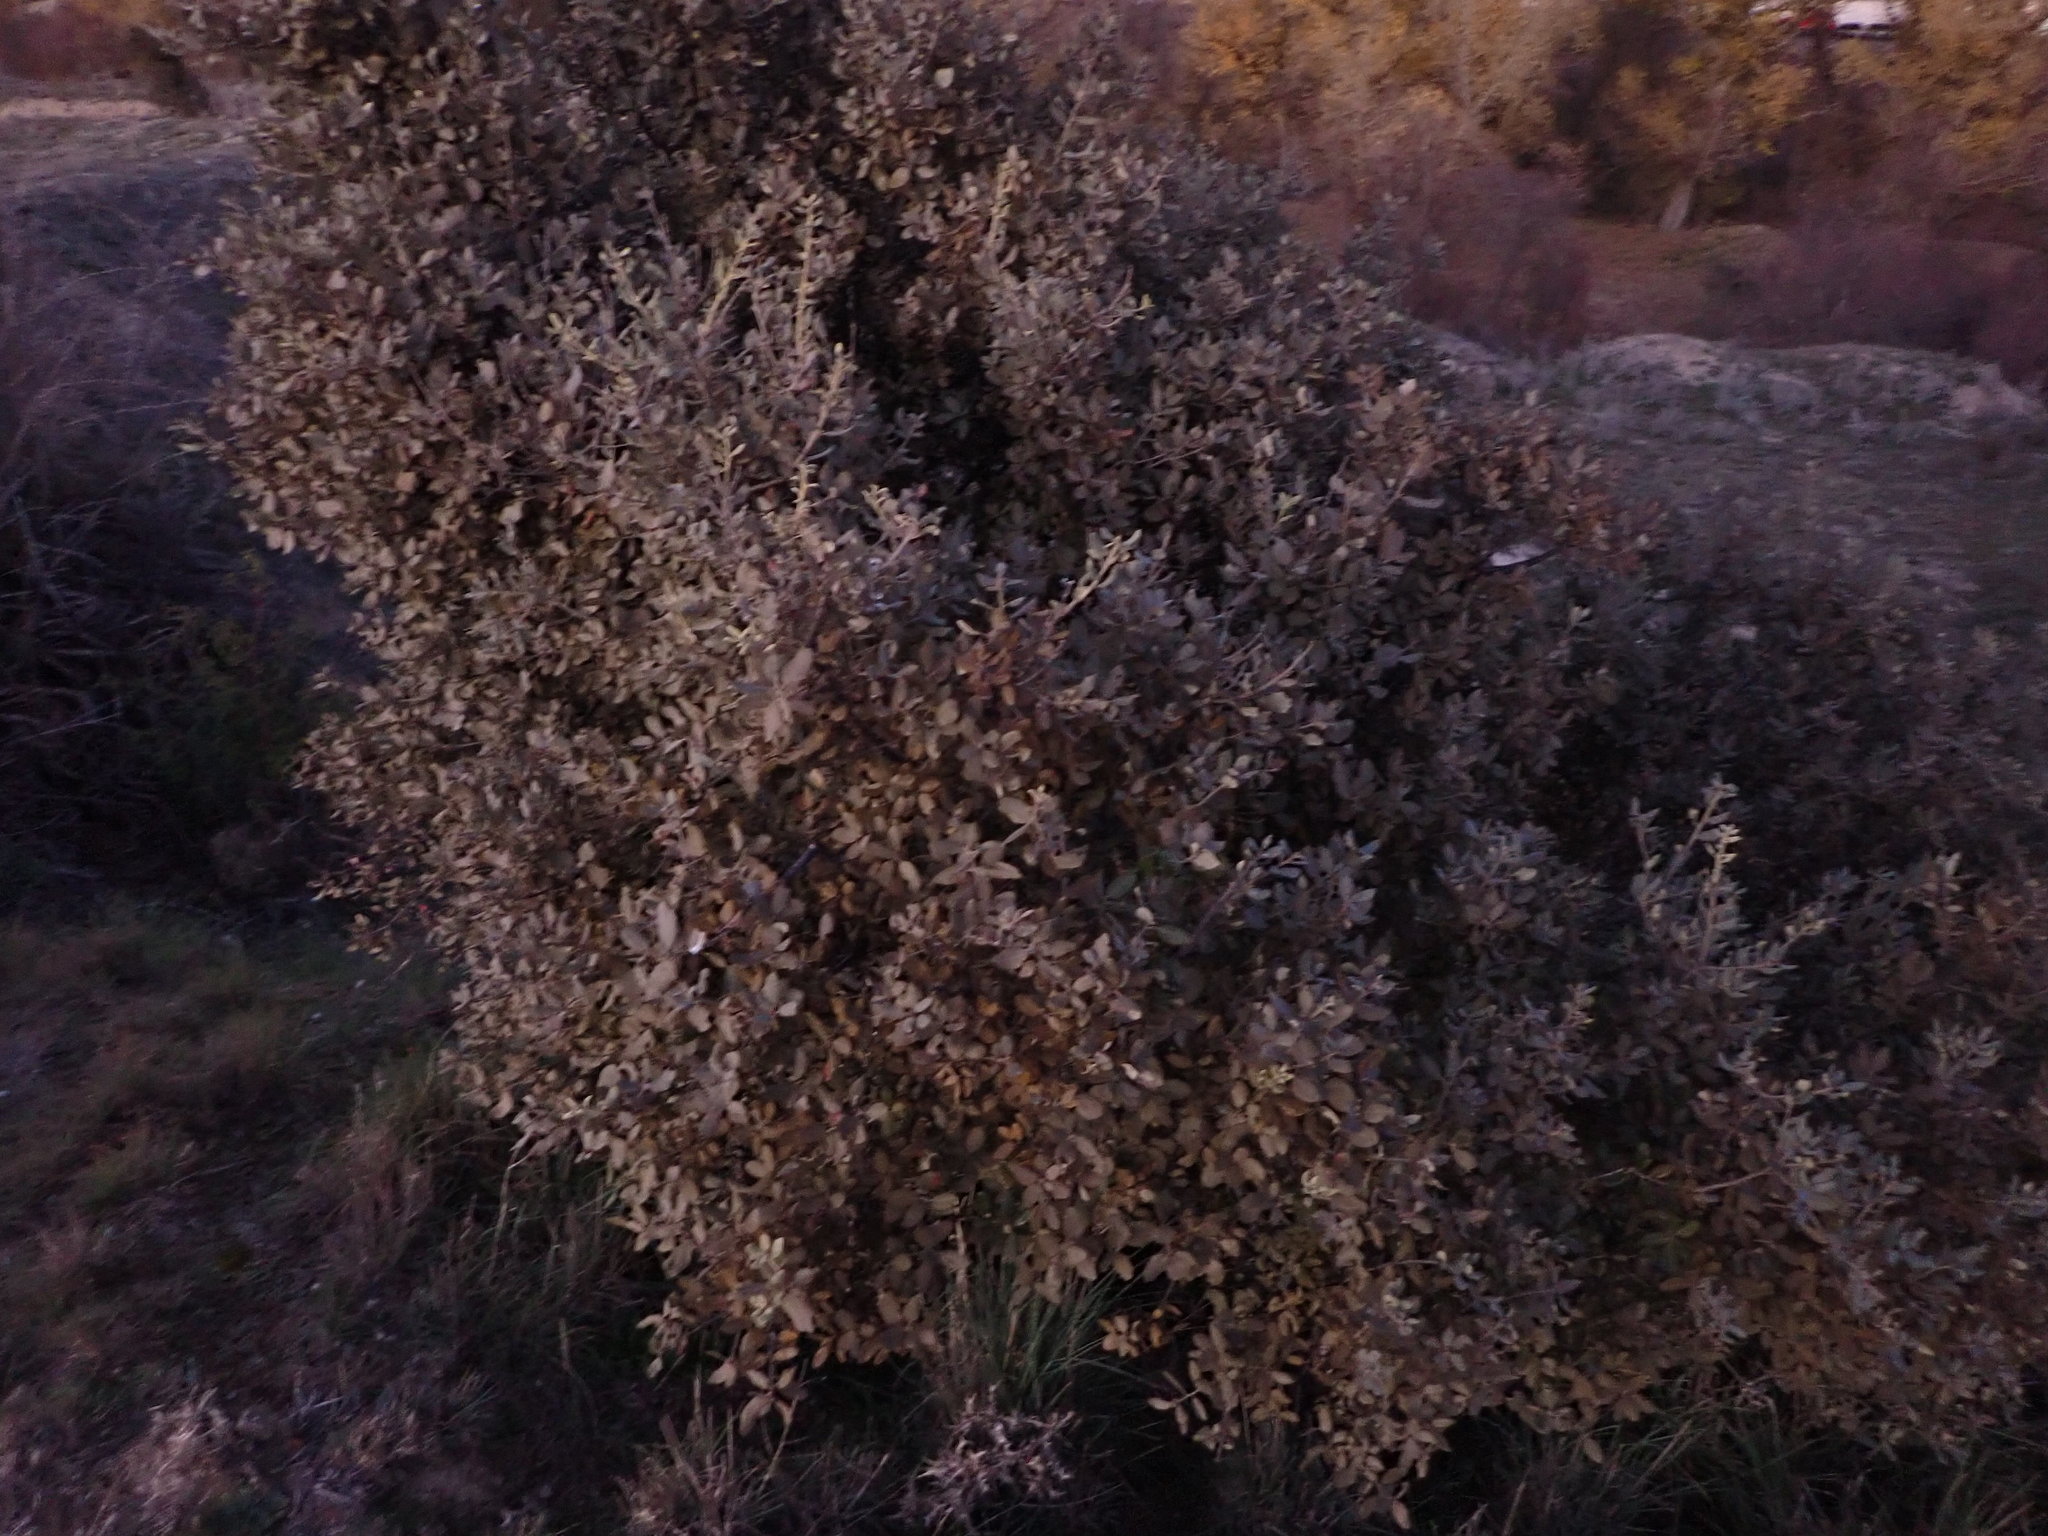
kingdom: Plantae
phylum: Tracheophyta
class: Magnoliopsida
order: Fagales
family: Fagaceae
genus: Quercus
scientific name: Quercus rotundifolia
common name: Holm oak
